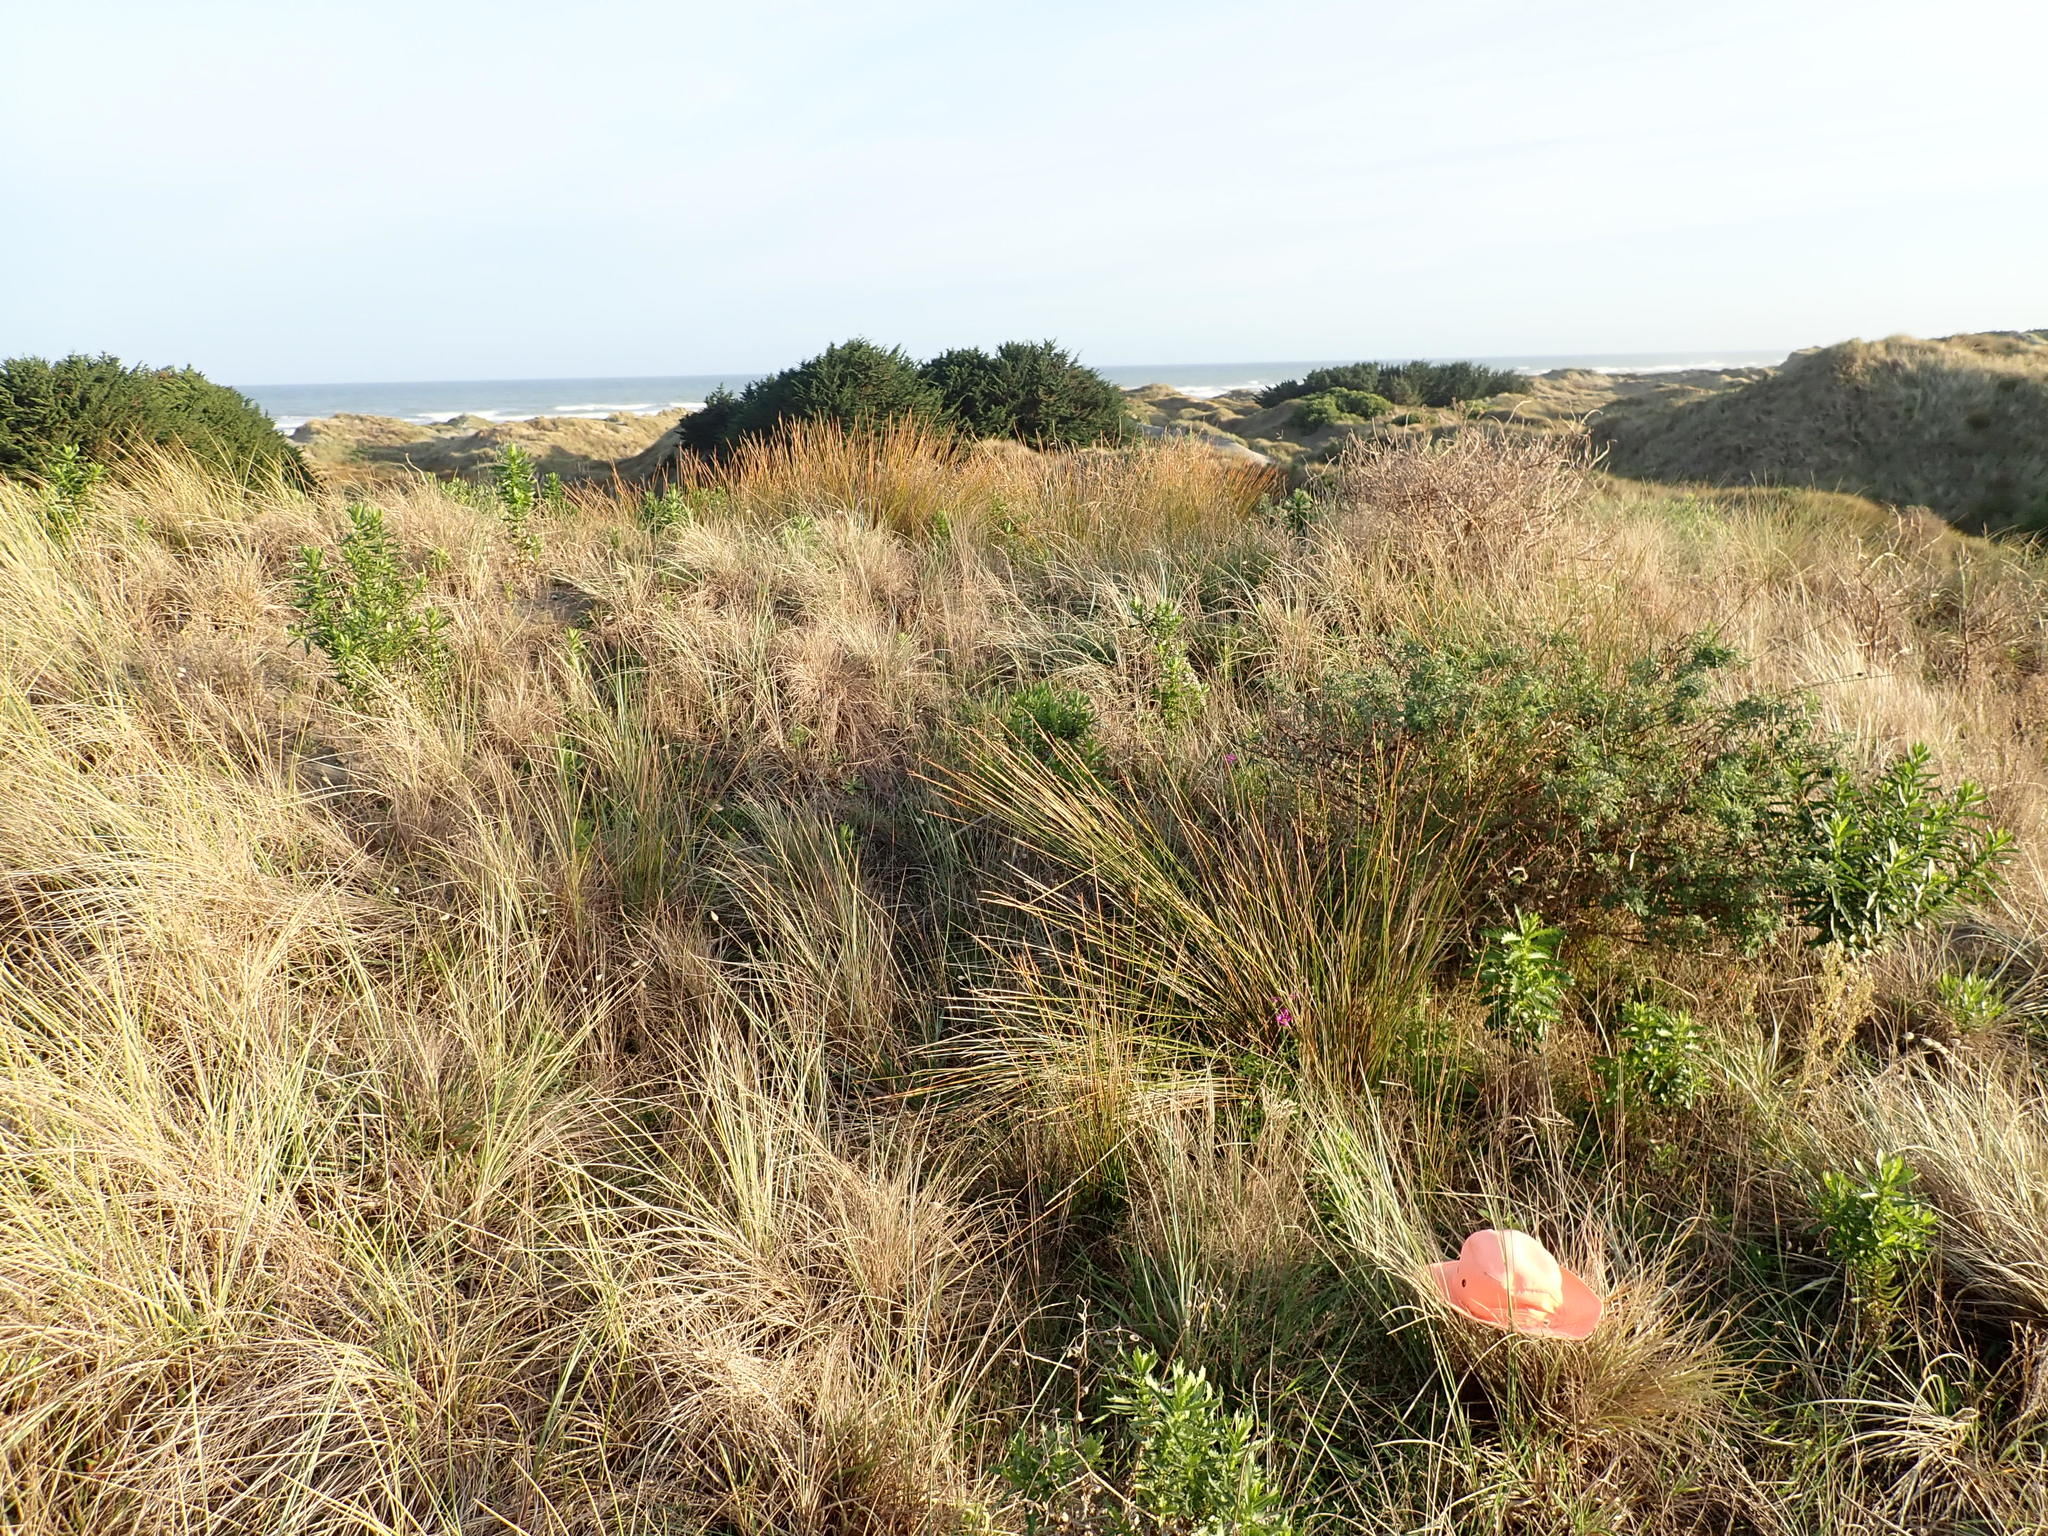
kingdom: Animalia
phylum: Arthropoda
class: Malacostraca
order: Isopoda
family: Porcellionidae
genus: Porcellio
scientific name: Porcellio scaber
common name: Common rough woodlouse
